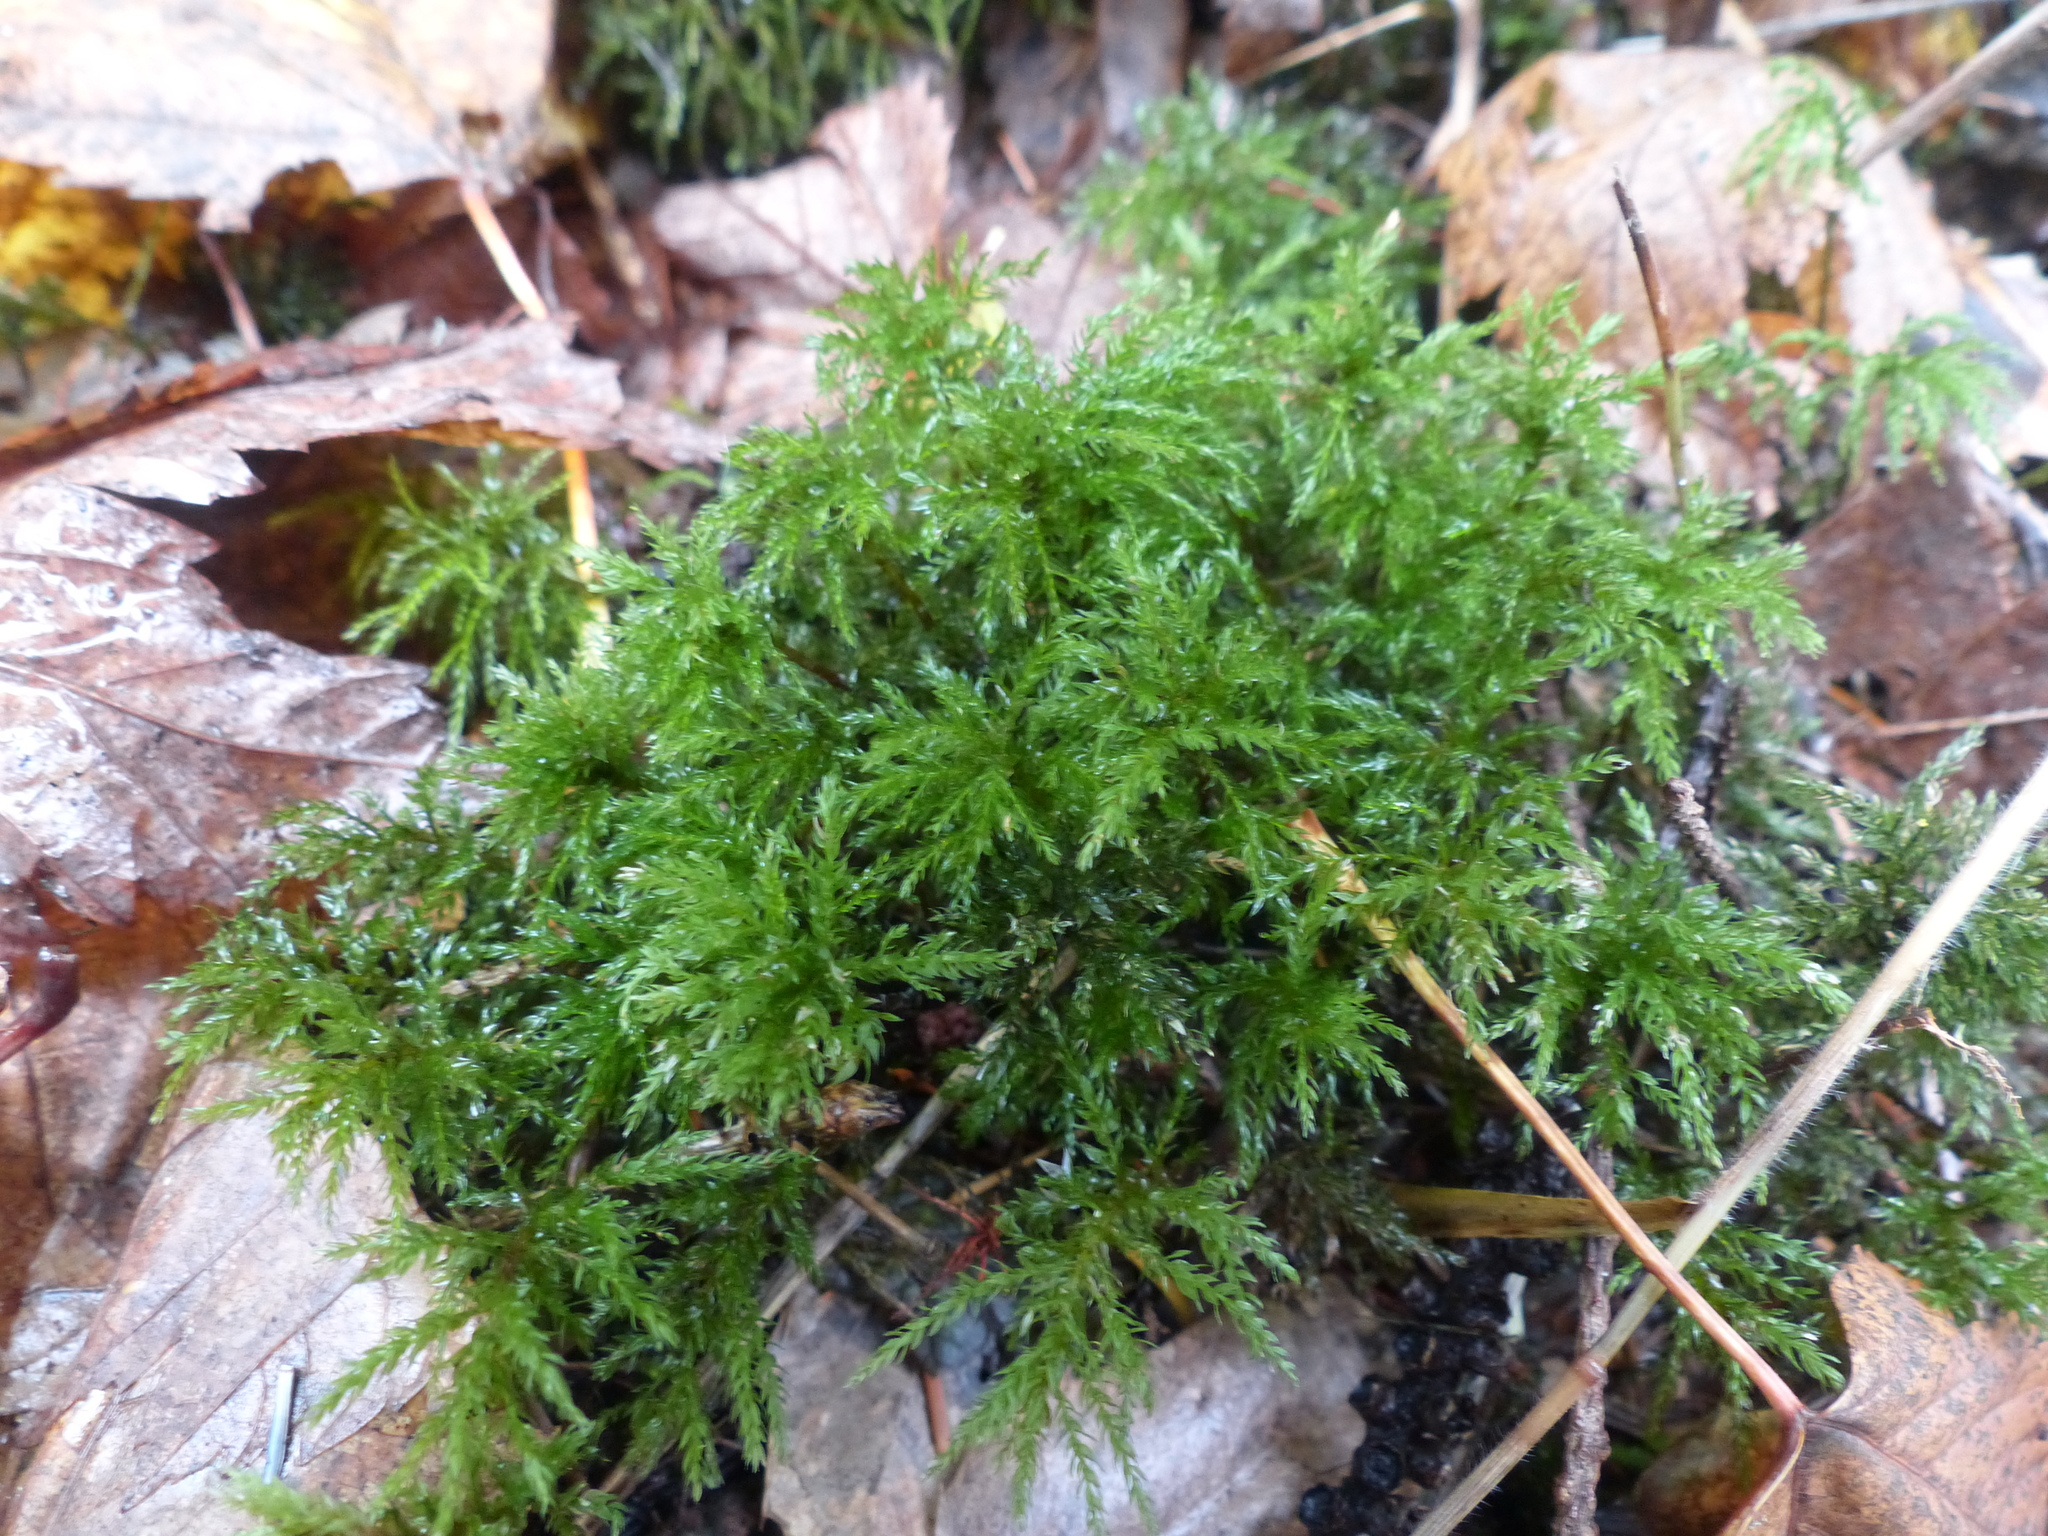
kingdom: Plantae
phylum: Bryophyta
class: Bryopsida
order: Bryales
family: Mniaceae
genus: Leucolepis
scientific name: Leucolepis acanthoneura
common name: Leucolepis umbrella moss
